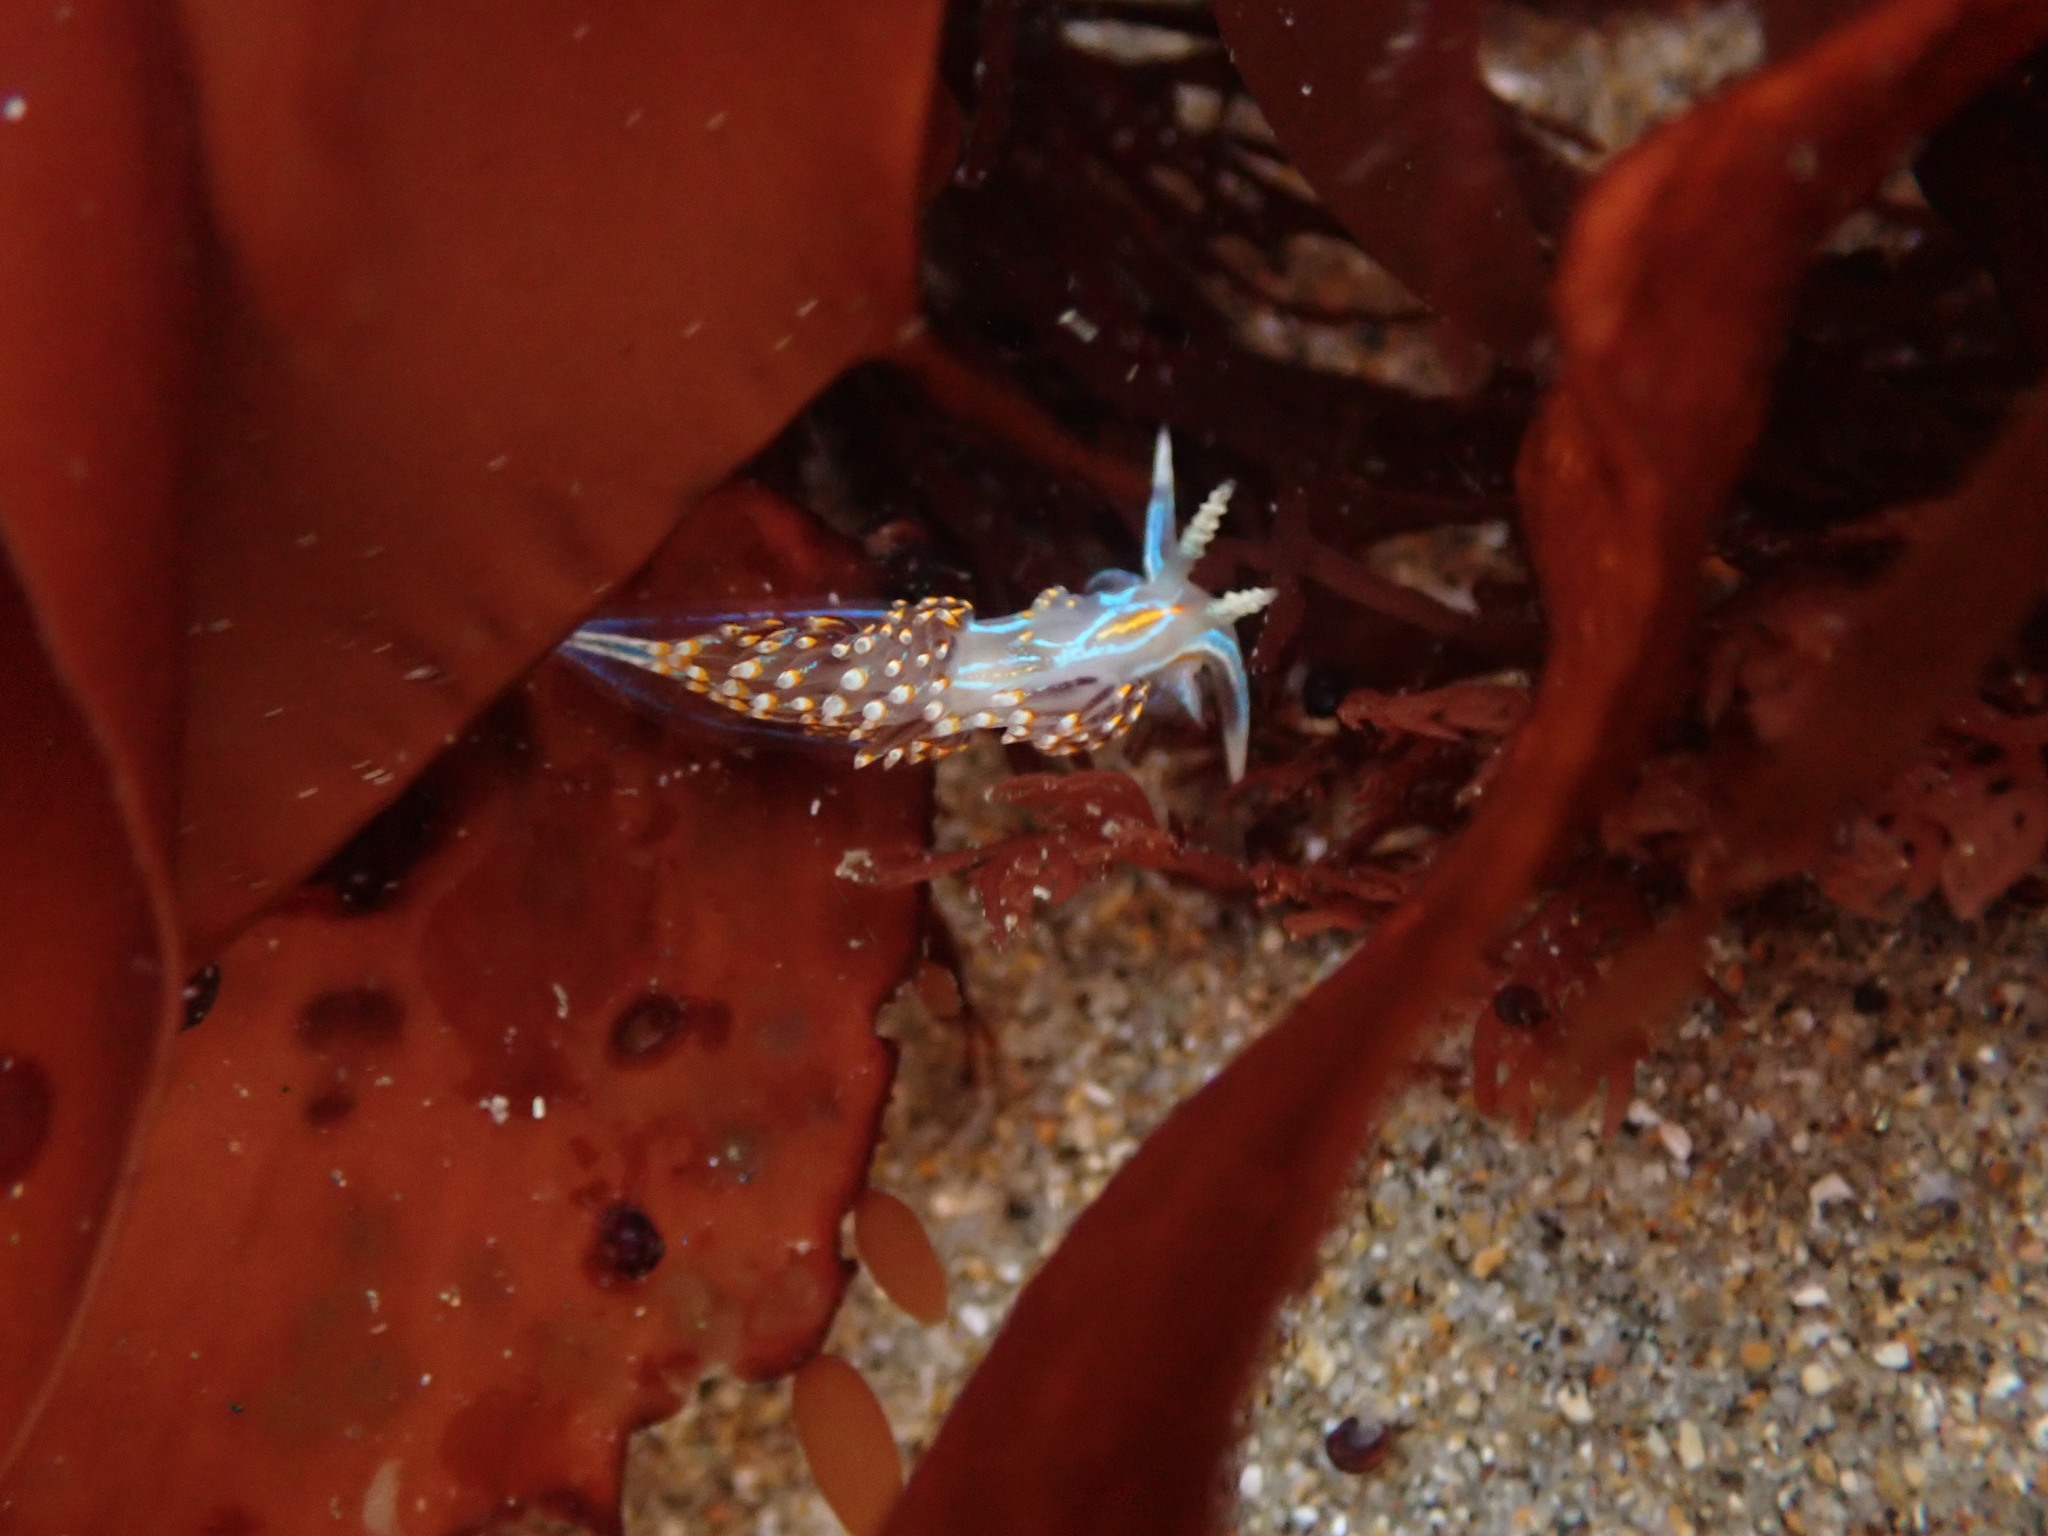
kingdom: Animalia
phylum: Mollusca
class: Gastropoda
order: Nudibranchia
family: Myrrhinidae
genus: Hermissenda
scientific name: Hermissenda opalescens
